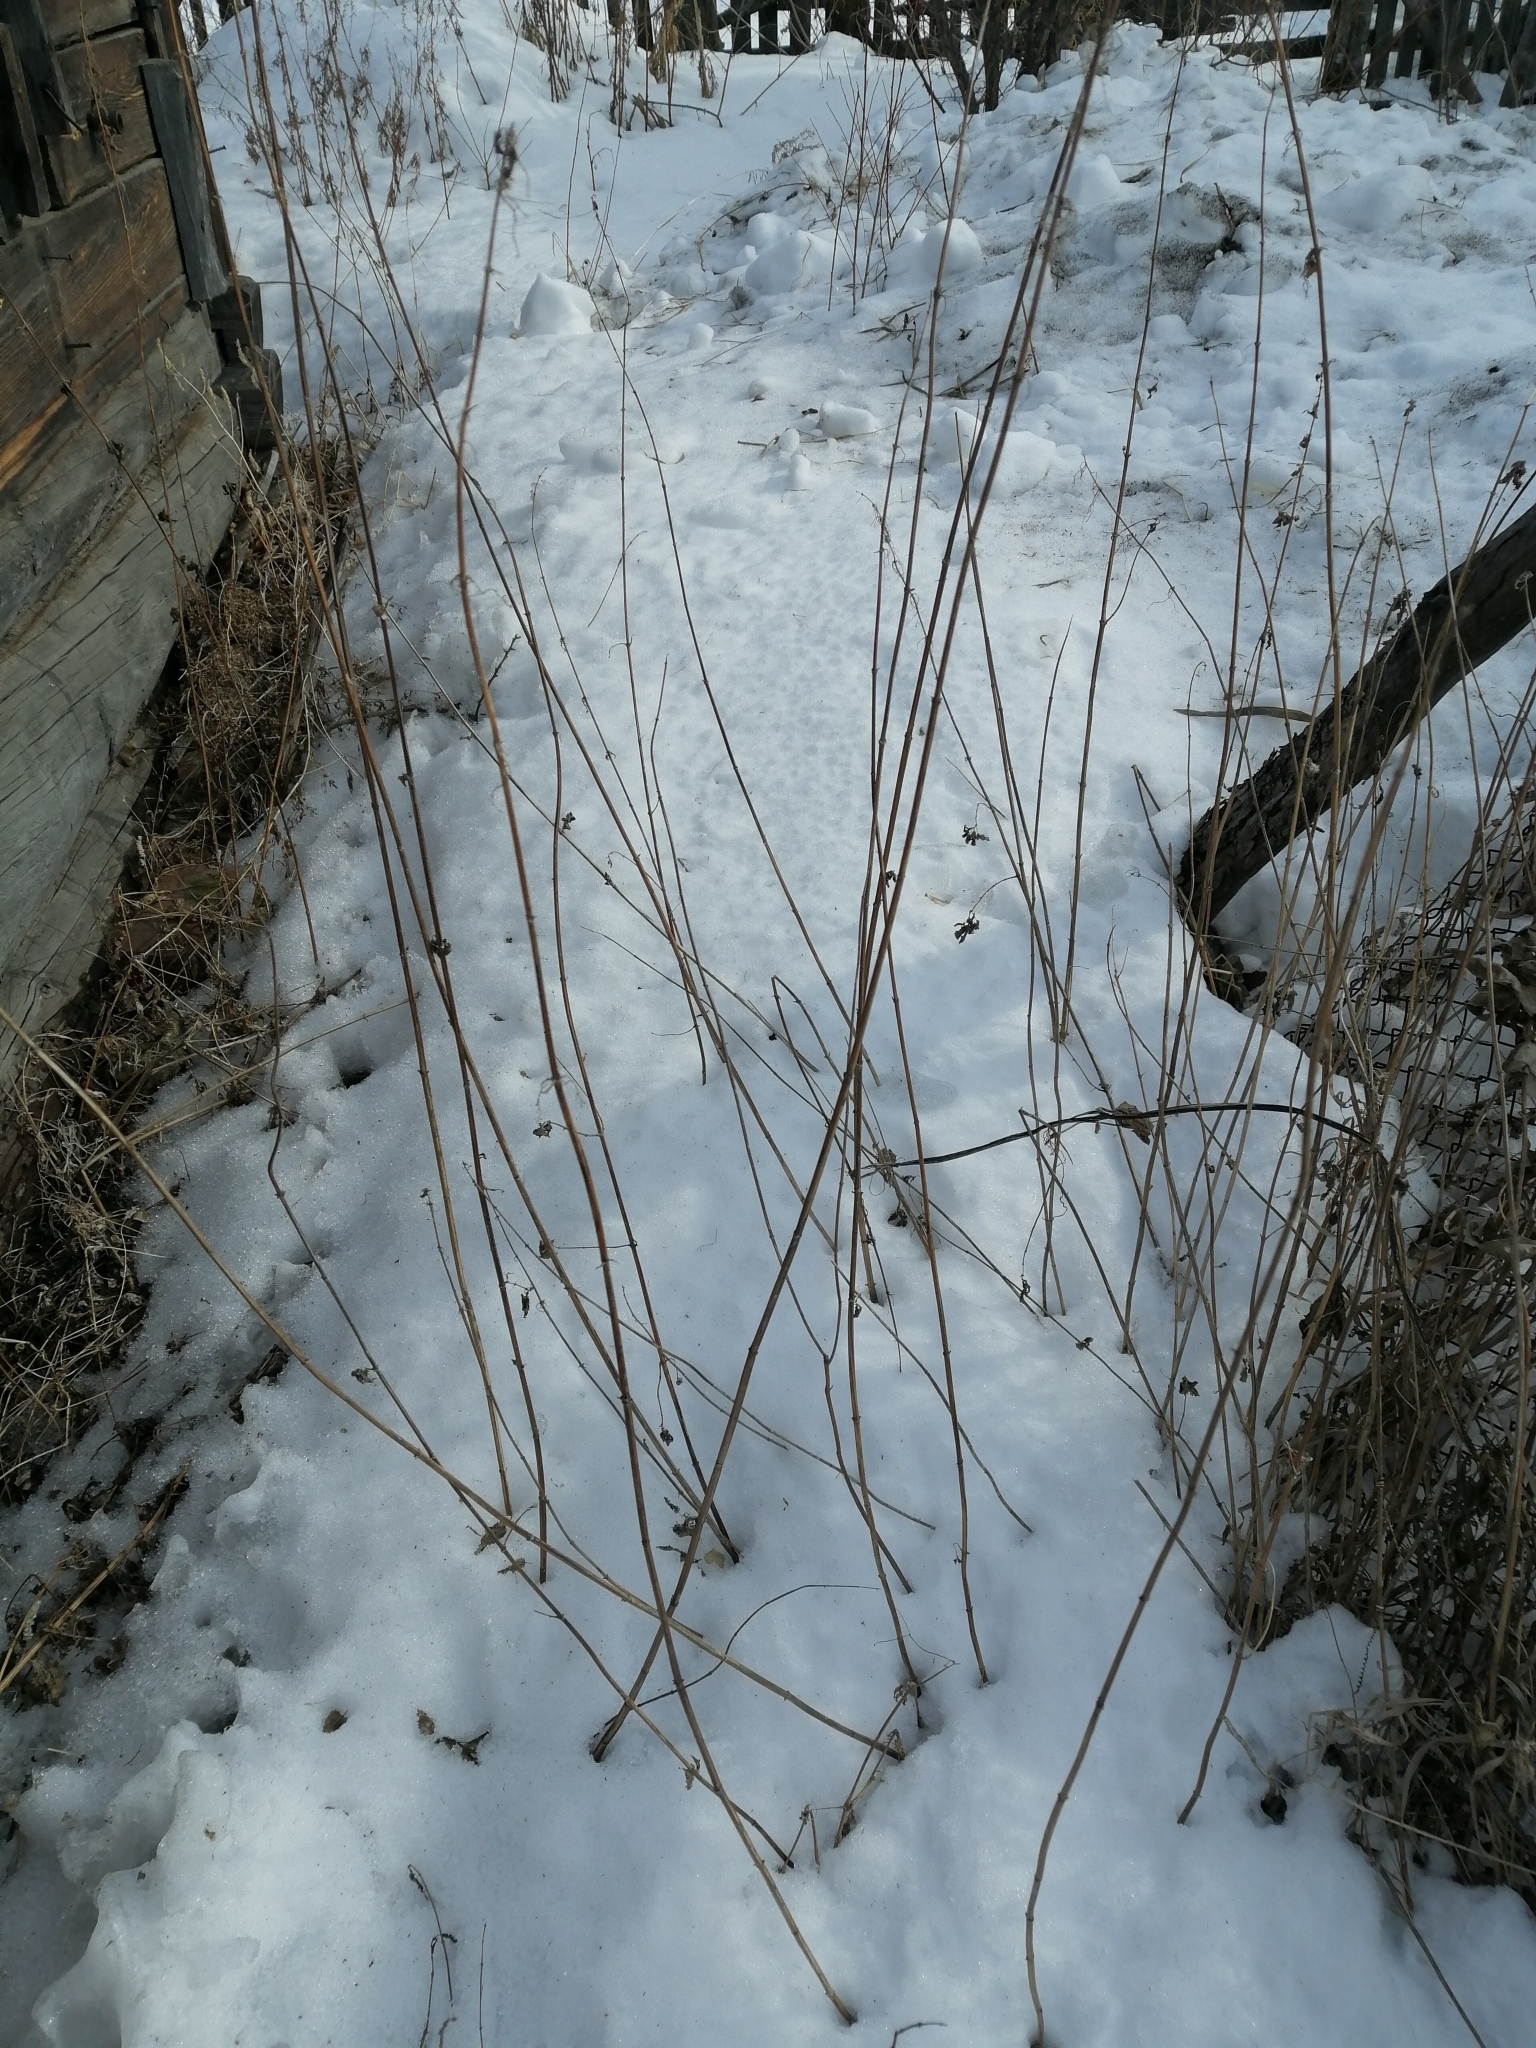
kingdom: Plantae
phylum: Tracheophyta
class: Magnoliopsida
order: Rosales
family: Urticaceae
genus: Urtica
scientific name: Urtica dioica
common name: Common nettle
